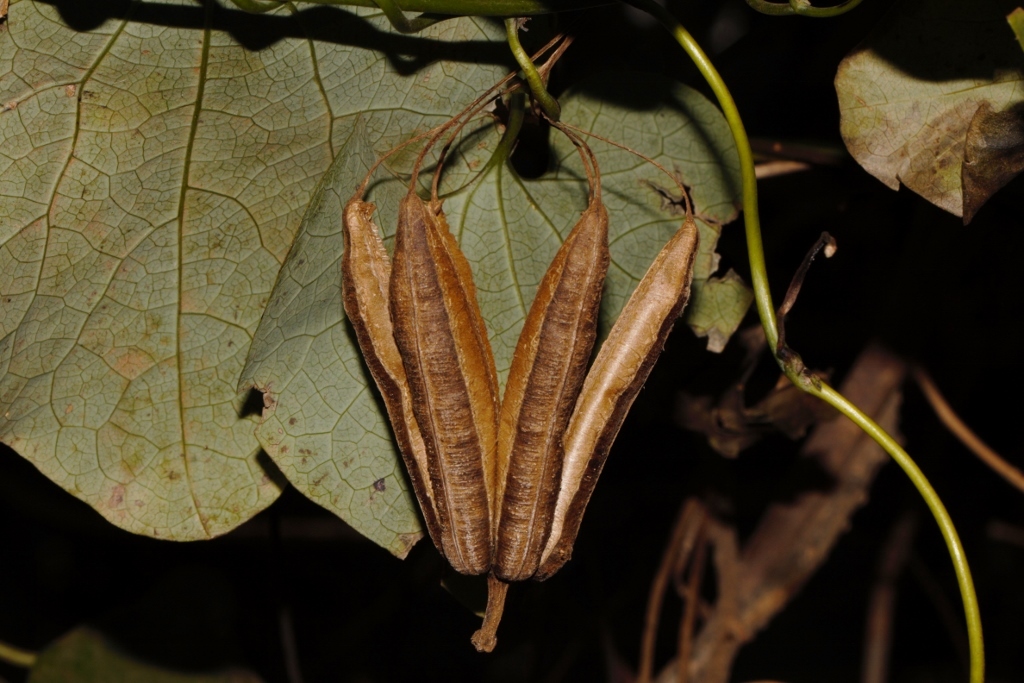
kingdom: Plantae
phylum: Tracheophyta
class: Magnoliopsida
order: Piperales
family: Aristolochiaceae
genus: Aristolochia
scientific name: Aristolochia littoralis
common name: Duck
